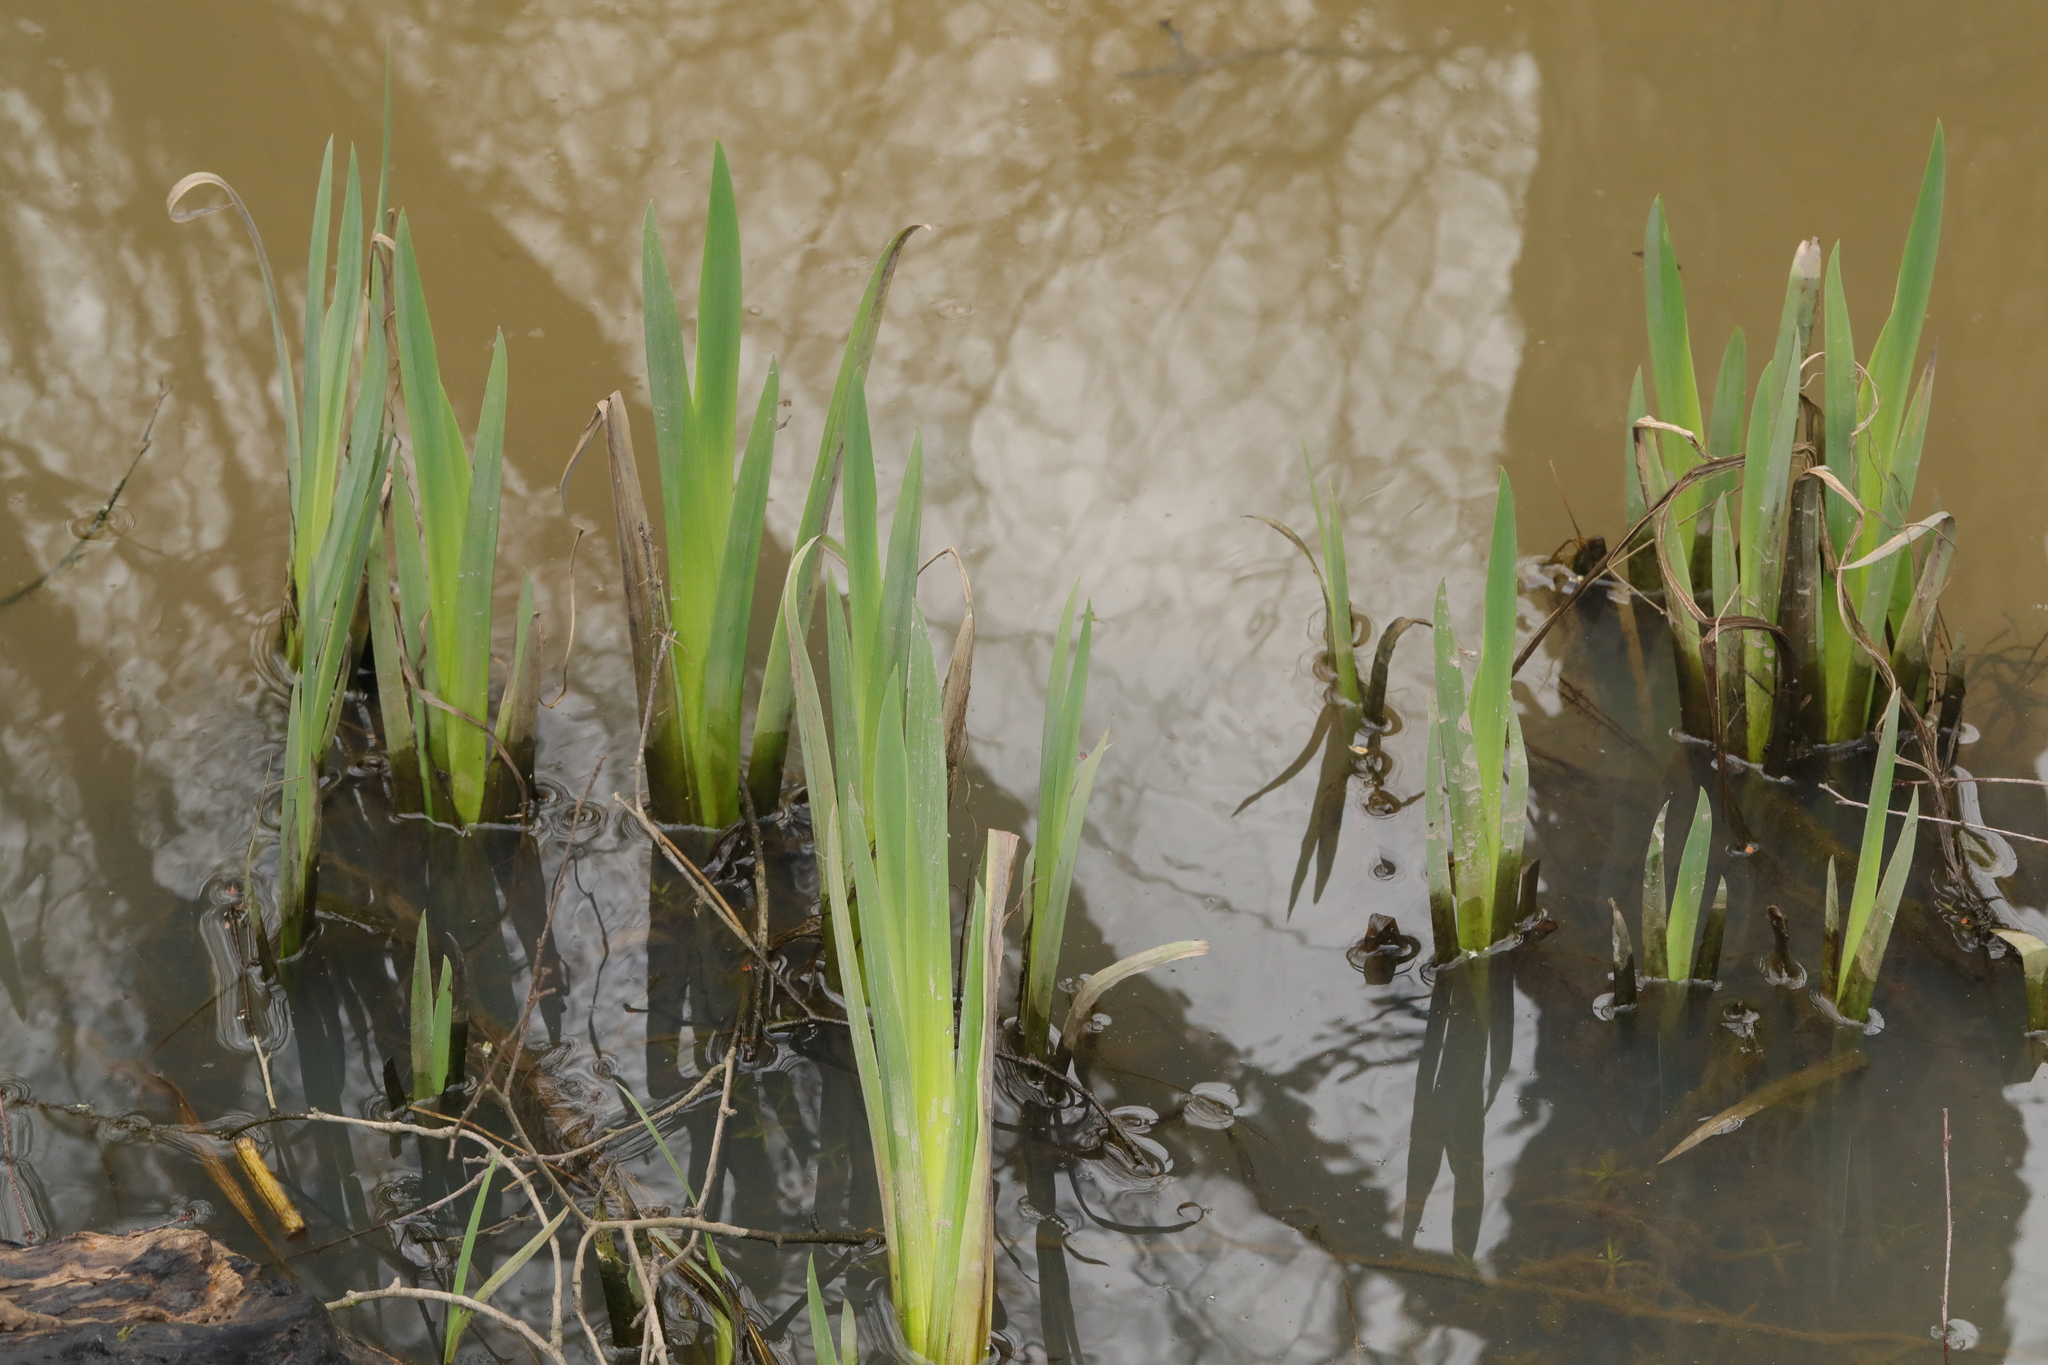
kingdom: Plantae
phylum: Tracheophyta
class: Liliopsida
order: Asparagales
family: Iridaceae
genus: Iris
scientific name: Iris pseudacorus
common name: Yellow flag
